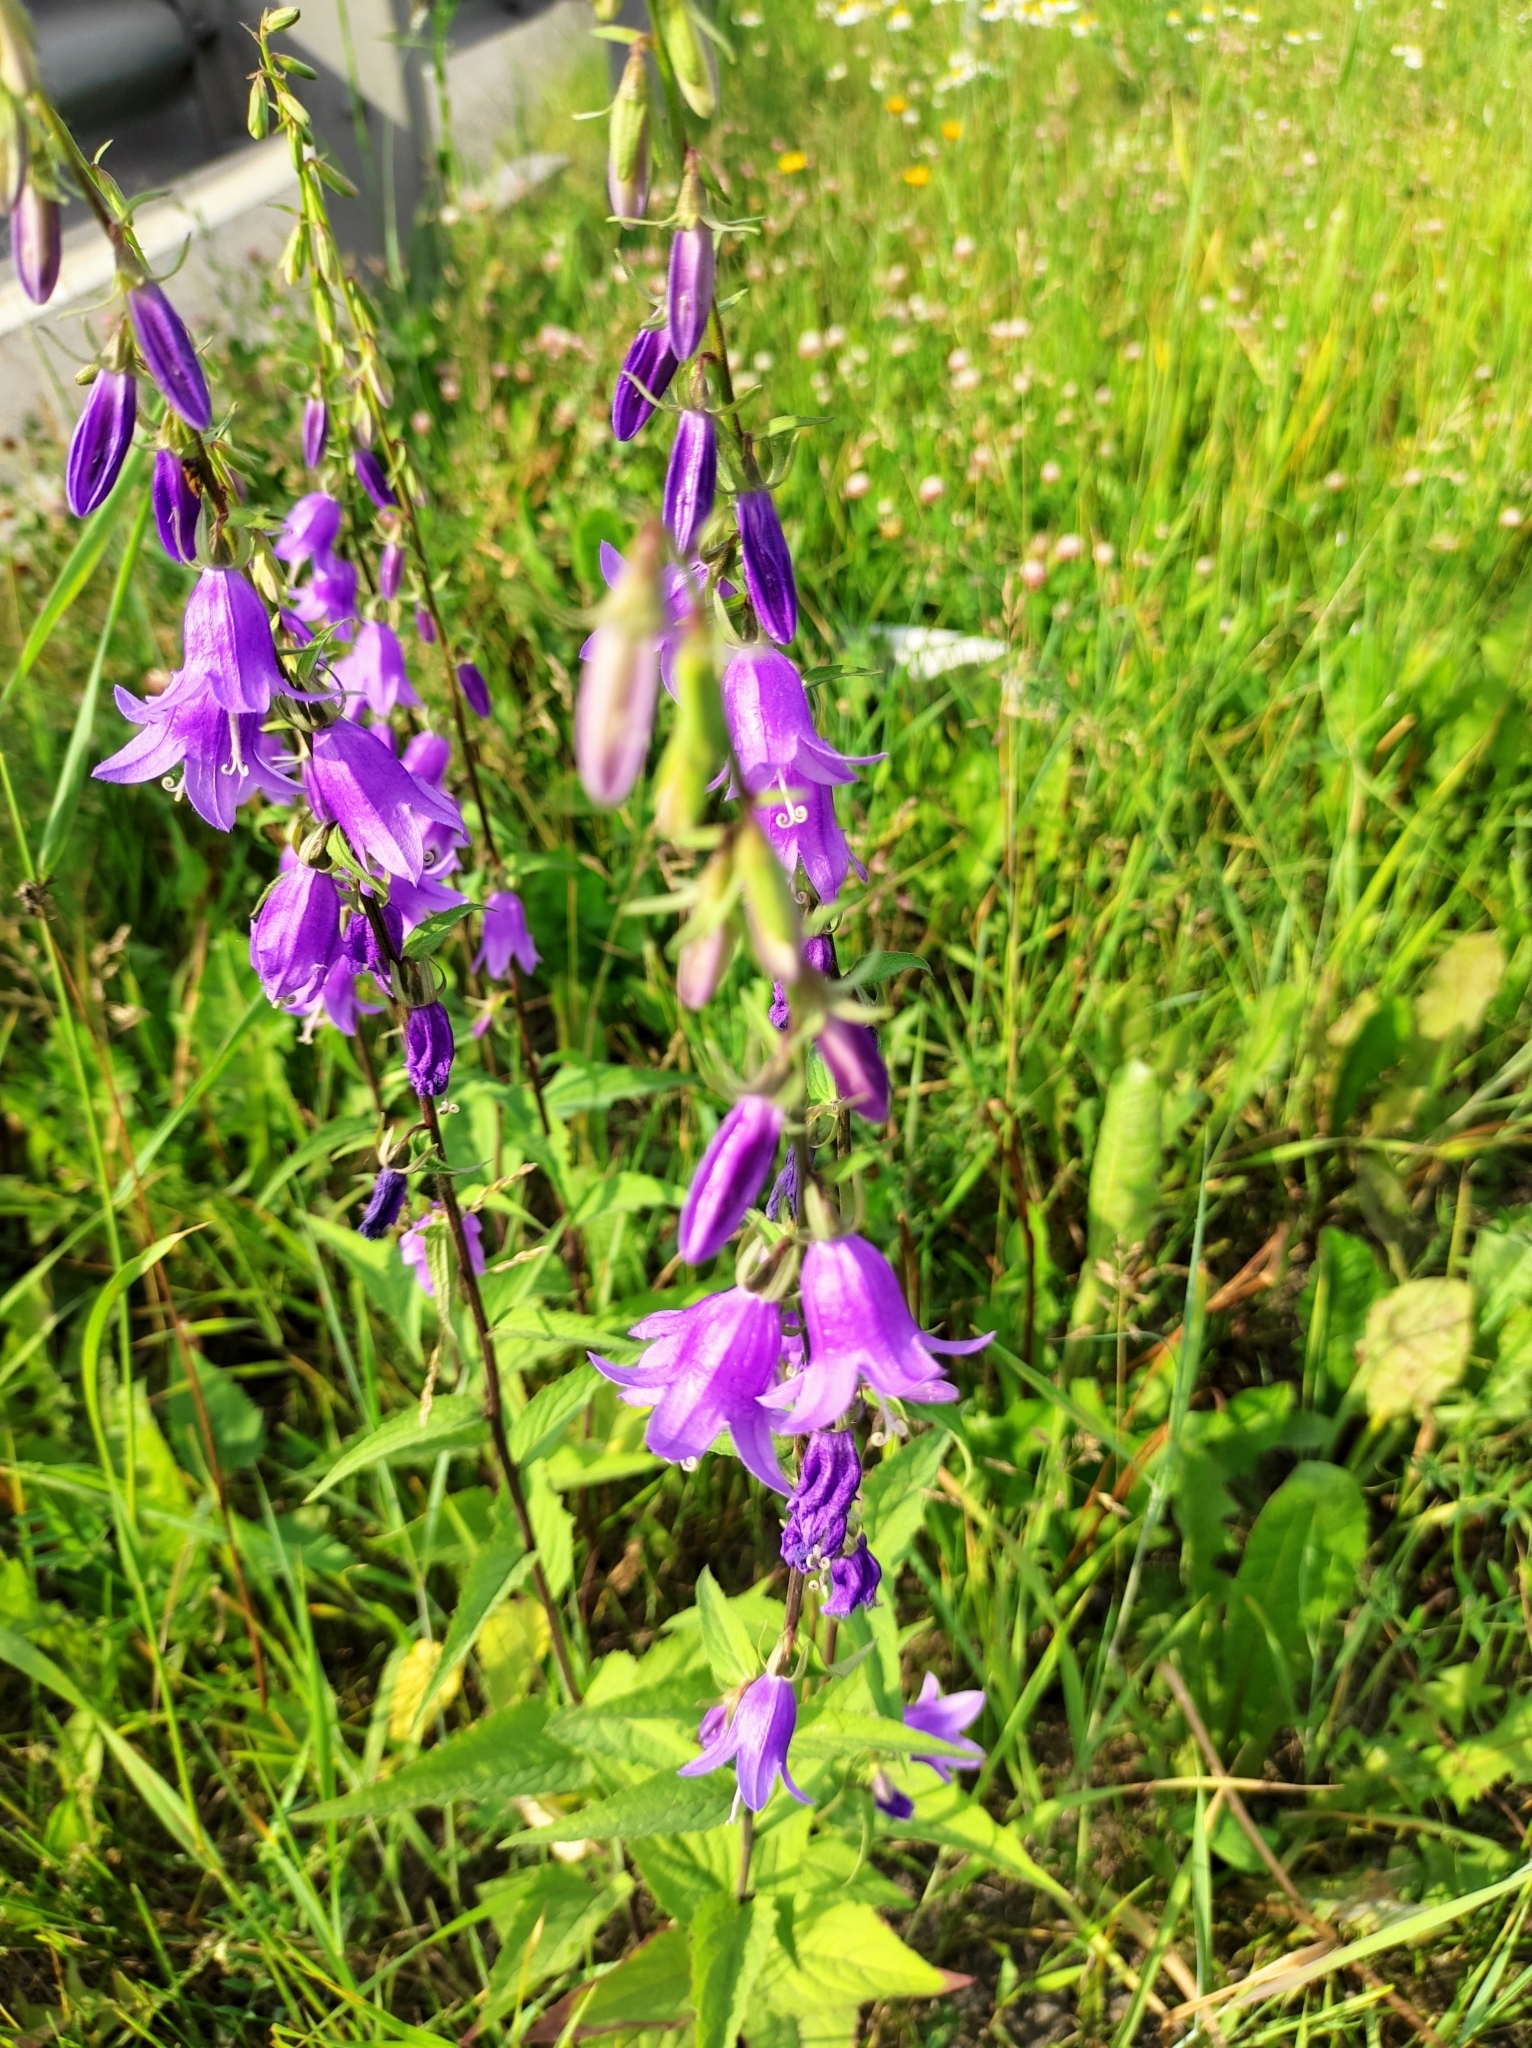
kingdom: Plantae
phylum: Tracheophyta
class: Magnoliopsida
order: Asterales
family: Campanulaceae
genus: Campanula
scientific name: Campanula rapunculoides
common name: Creeping bellflower
